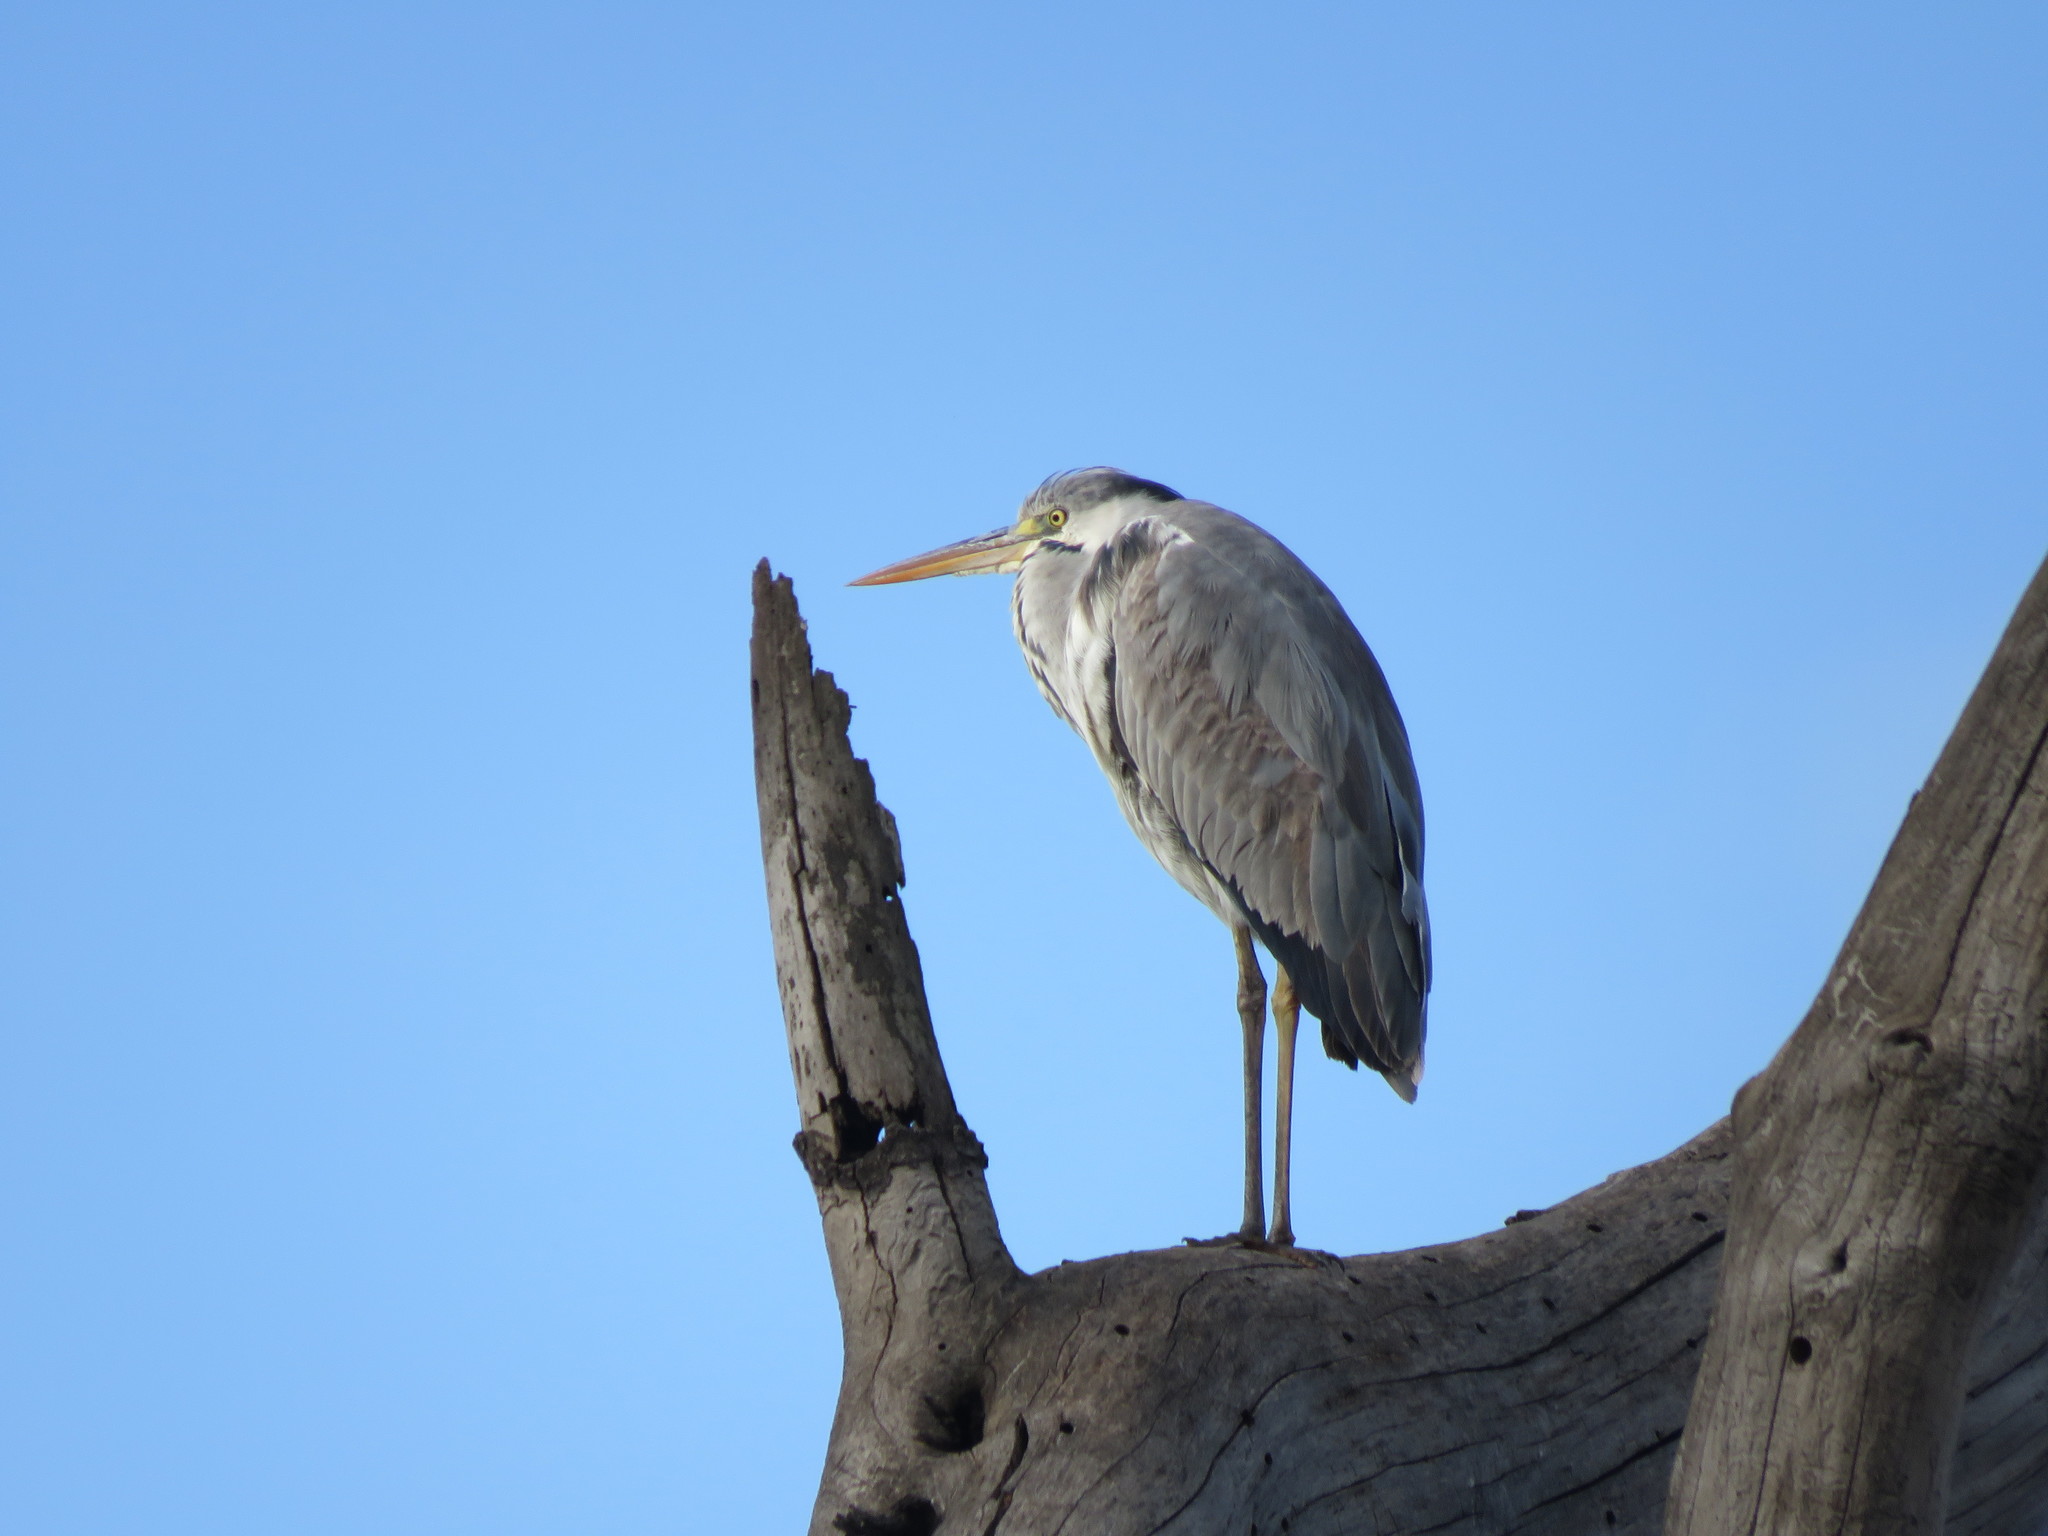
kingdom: Animalia
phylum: Chordata
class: Aves
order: Pelecaniformes
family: Ardeidae
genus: Ardea
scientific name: Ardea cinerea
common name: Grey heron
